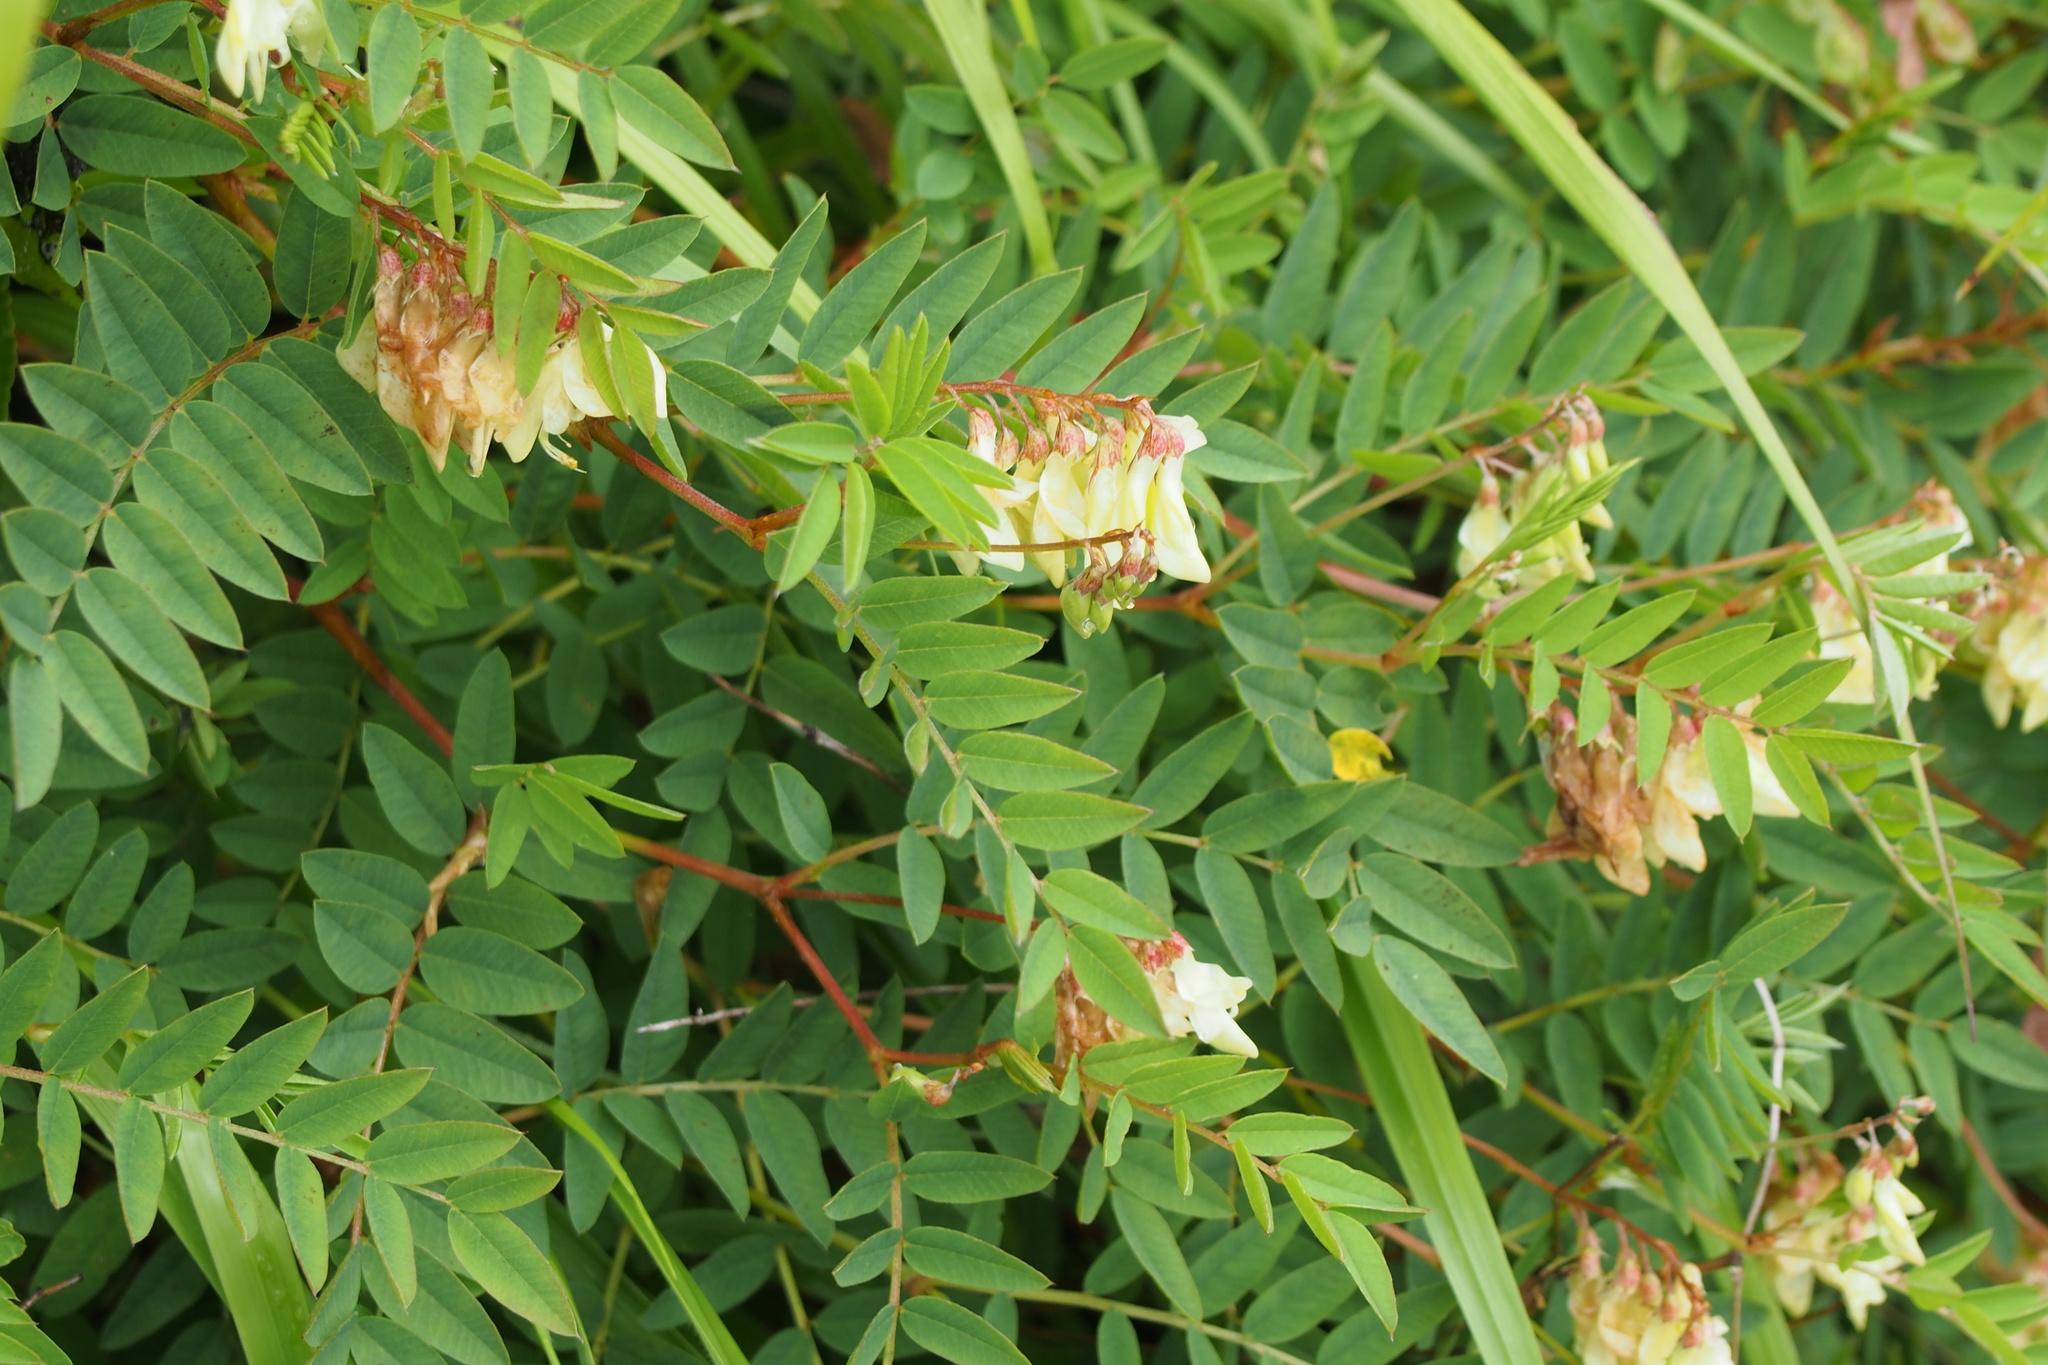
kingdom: Plantae
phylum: Tracheophyta
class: Magnoliopsida
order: Fabales
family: Fabaceae
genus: Hedysarum
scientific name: Hedysarum vicioides
